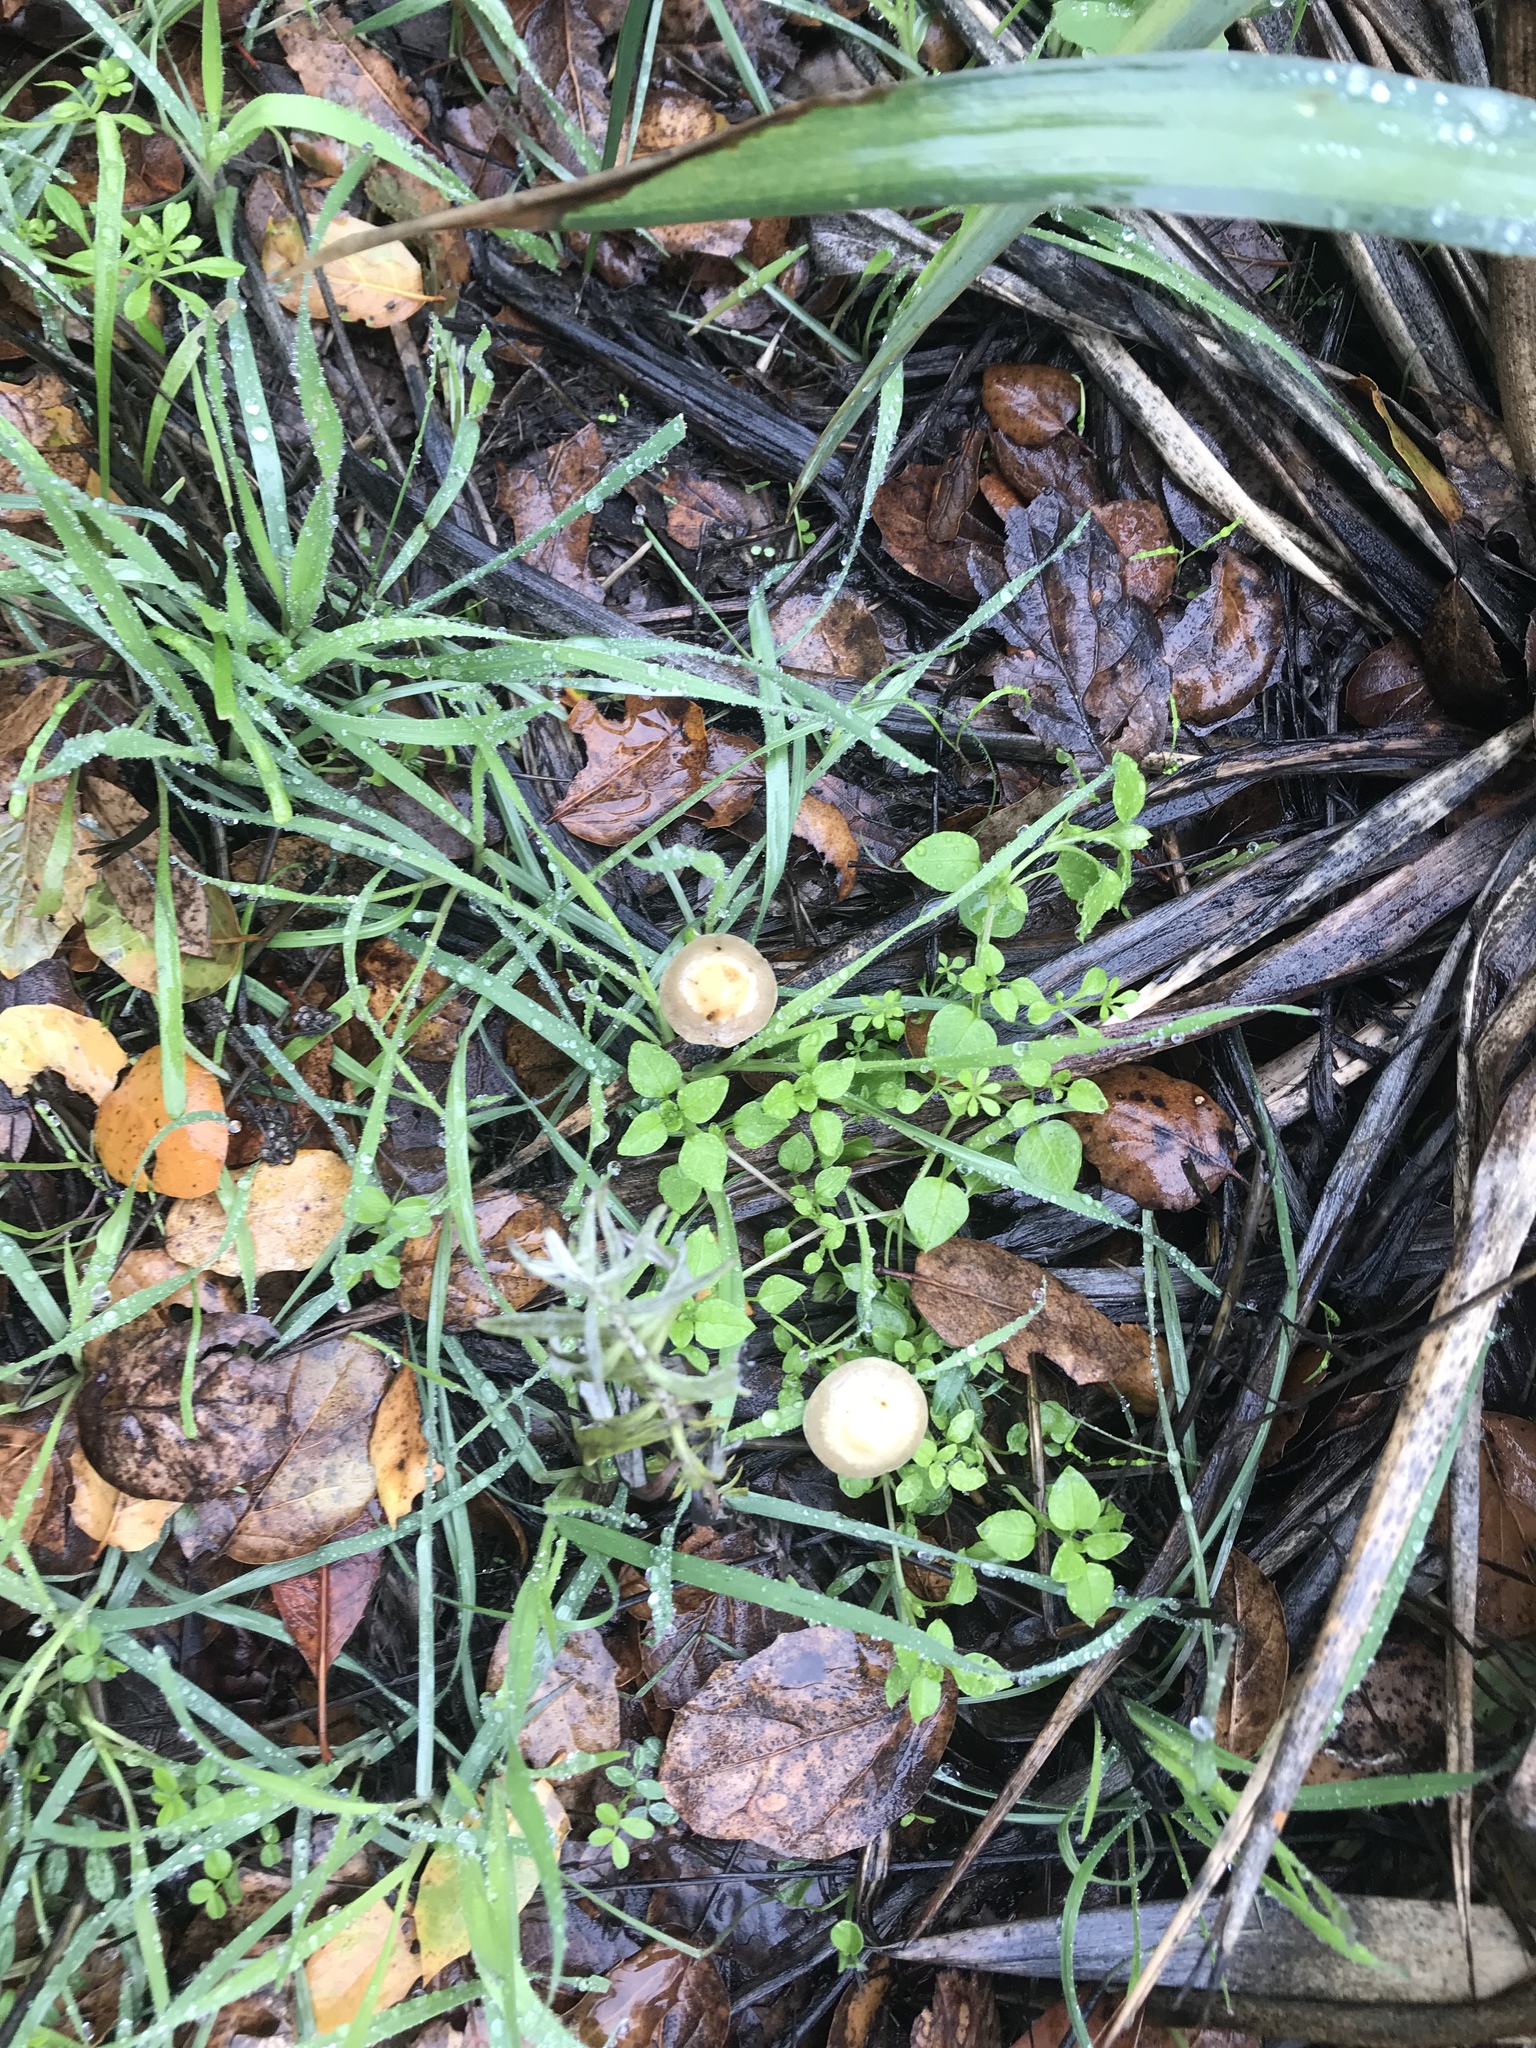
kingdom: Fungi
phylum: Basidiomycota
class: Agaricomycetes
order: Agaricales
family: Strophariaceae
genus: Leratiomyces
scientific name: Leratiomyces percevalii
